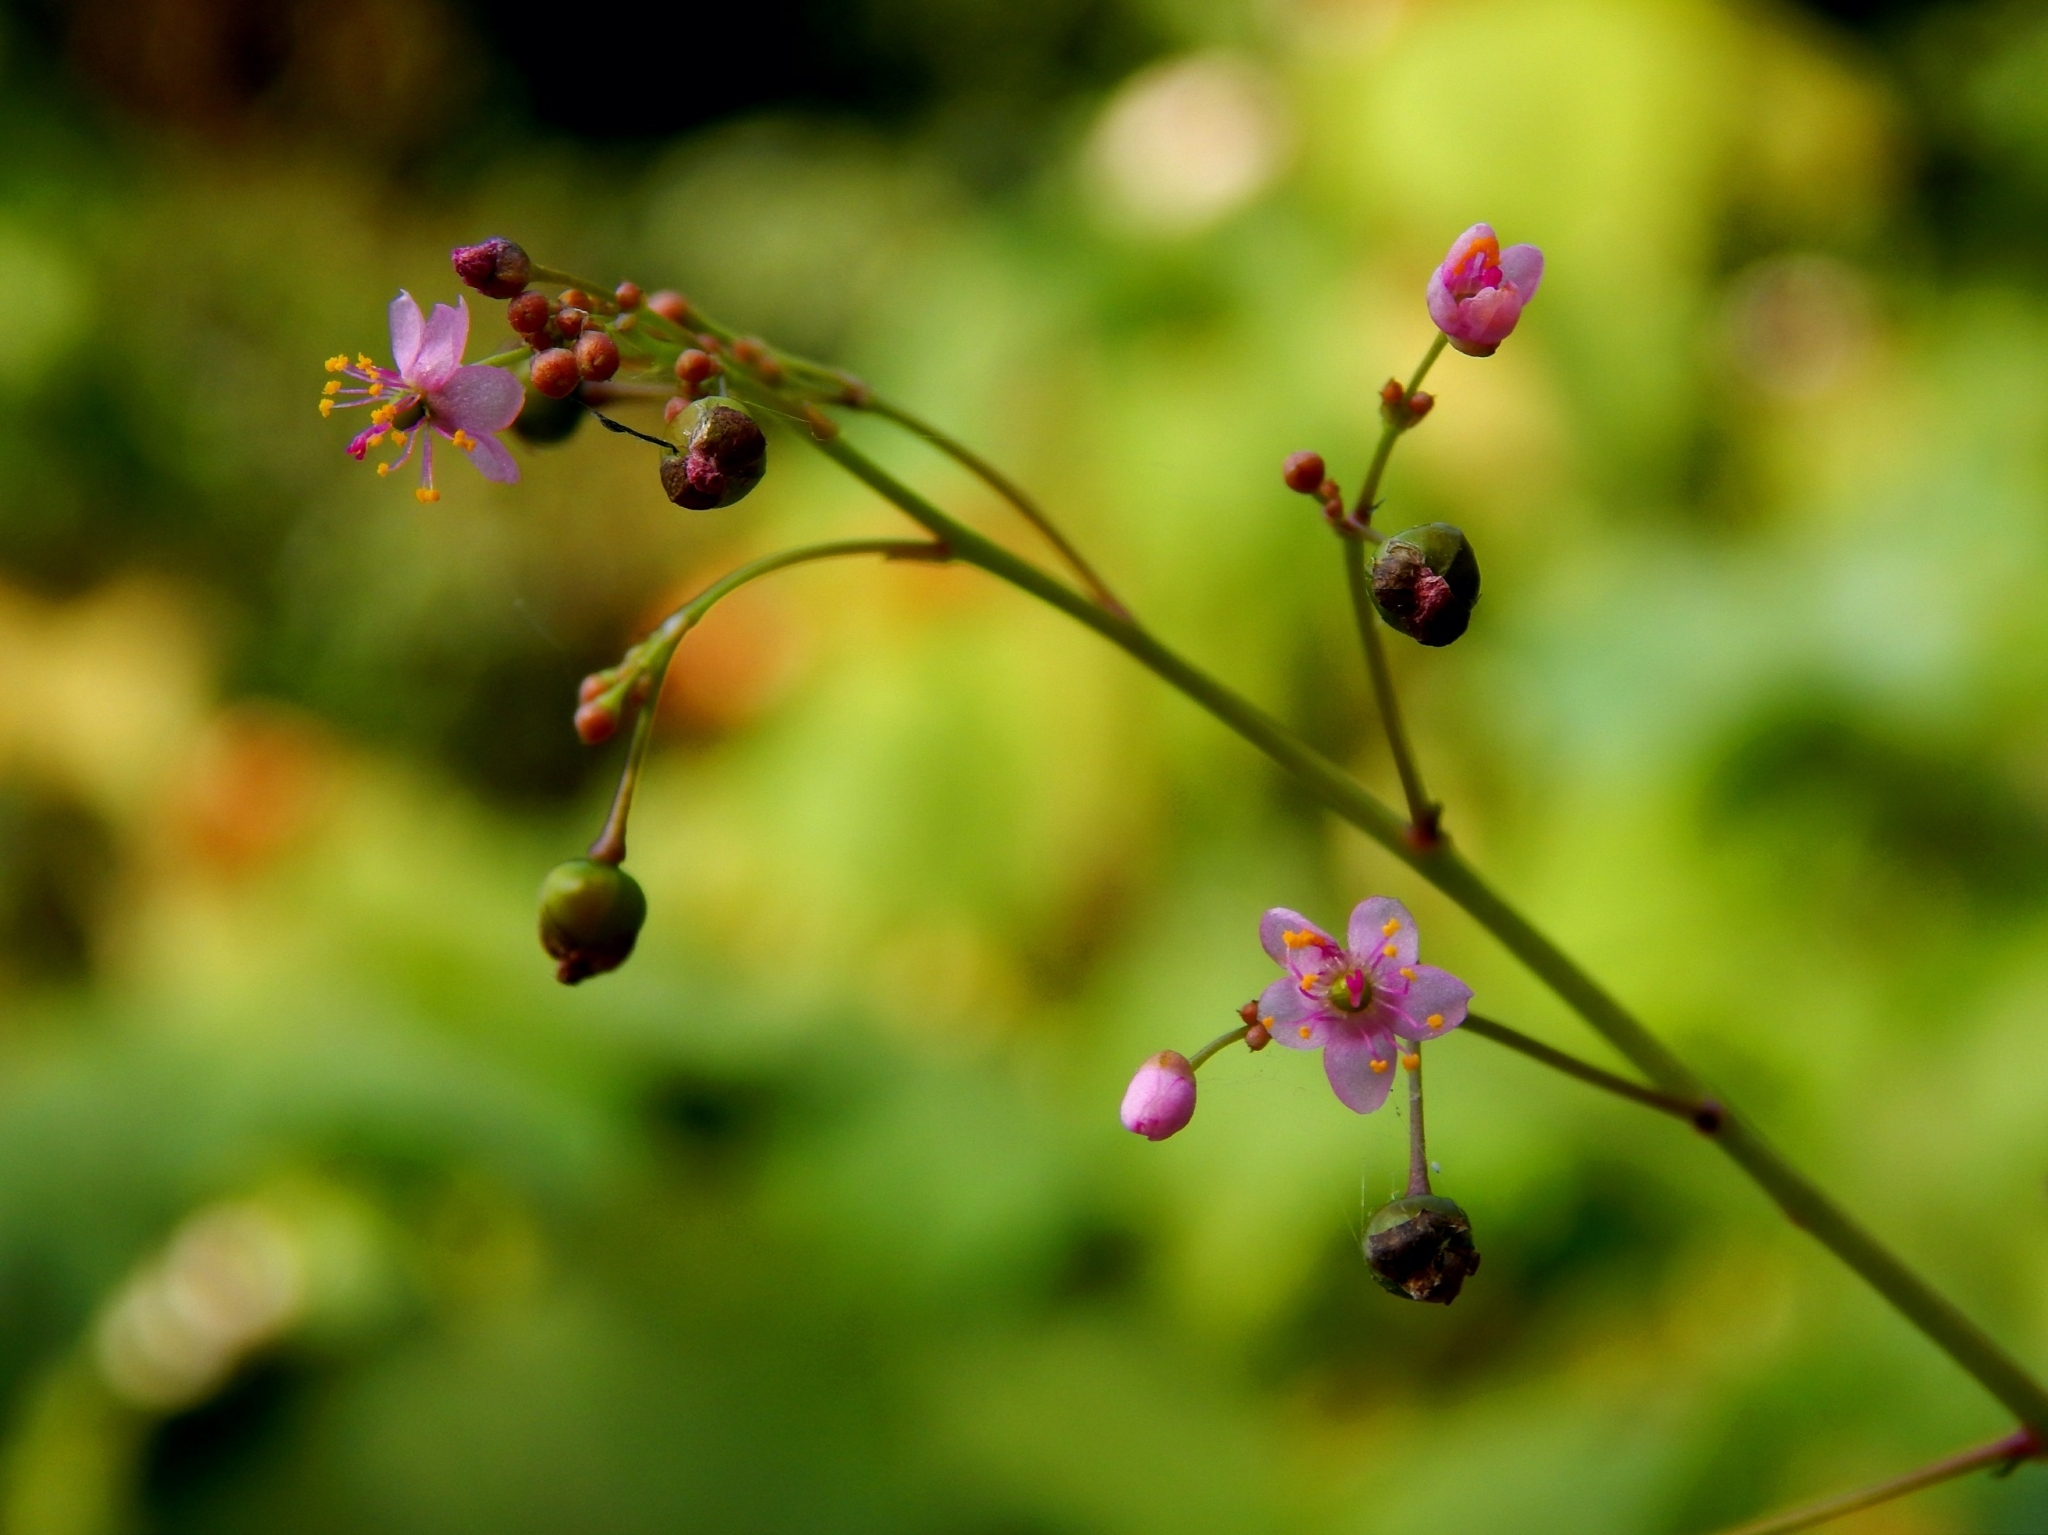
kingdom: Plantae
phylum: Tracheophyta
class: Magnoliopsida
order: Caryophyllales
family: Talinaceae
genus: Talinum
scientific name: Talinum paniculatum
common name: Jewels of opar
